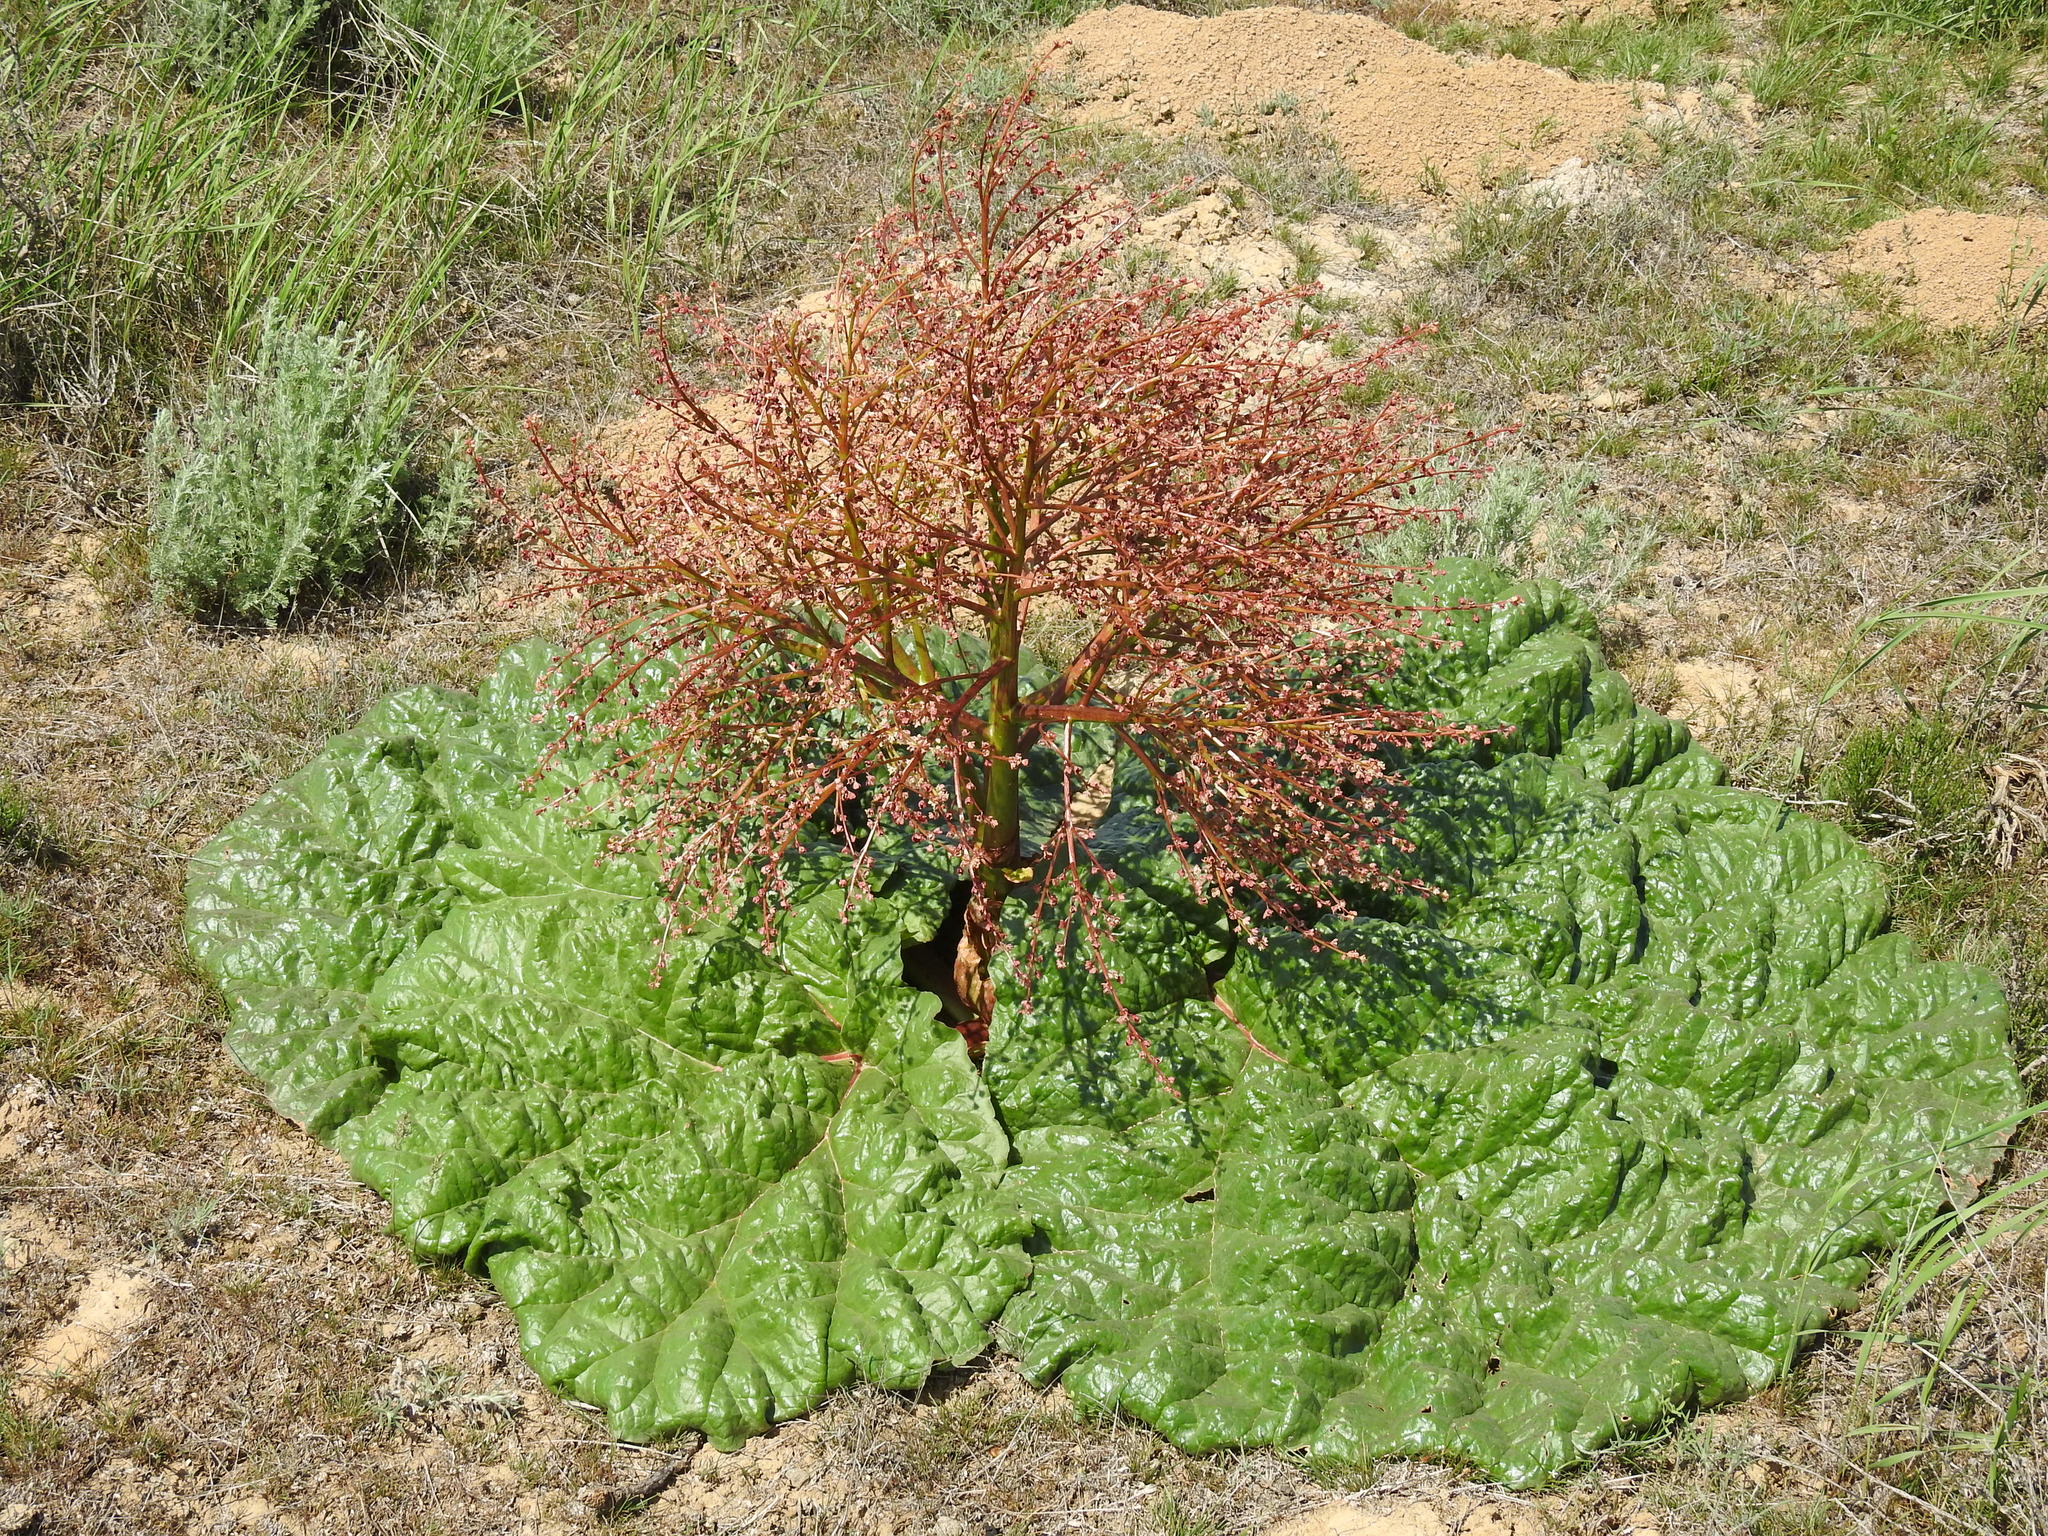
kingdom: Plantae
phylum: Tracheophyta
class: Magnoliopsida
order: Caryophyllales
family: Polygonaceae
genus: Rheum
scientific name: Rheum tataricum
